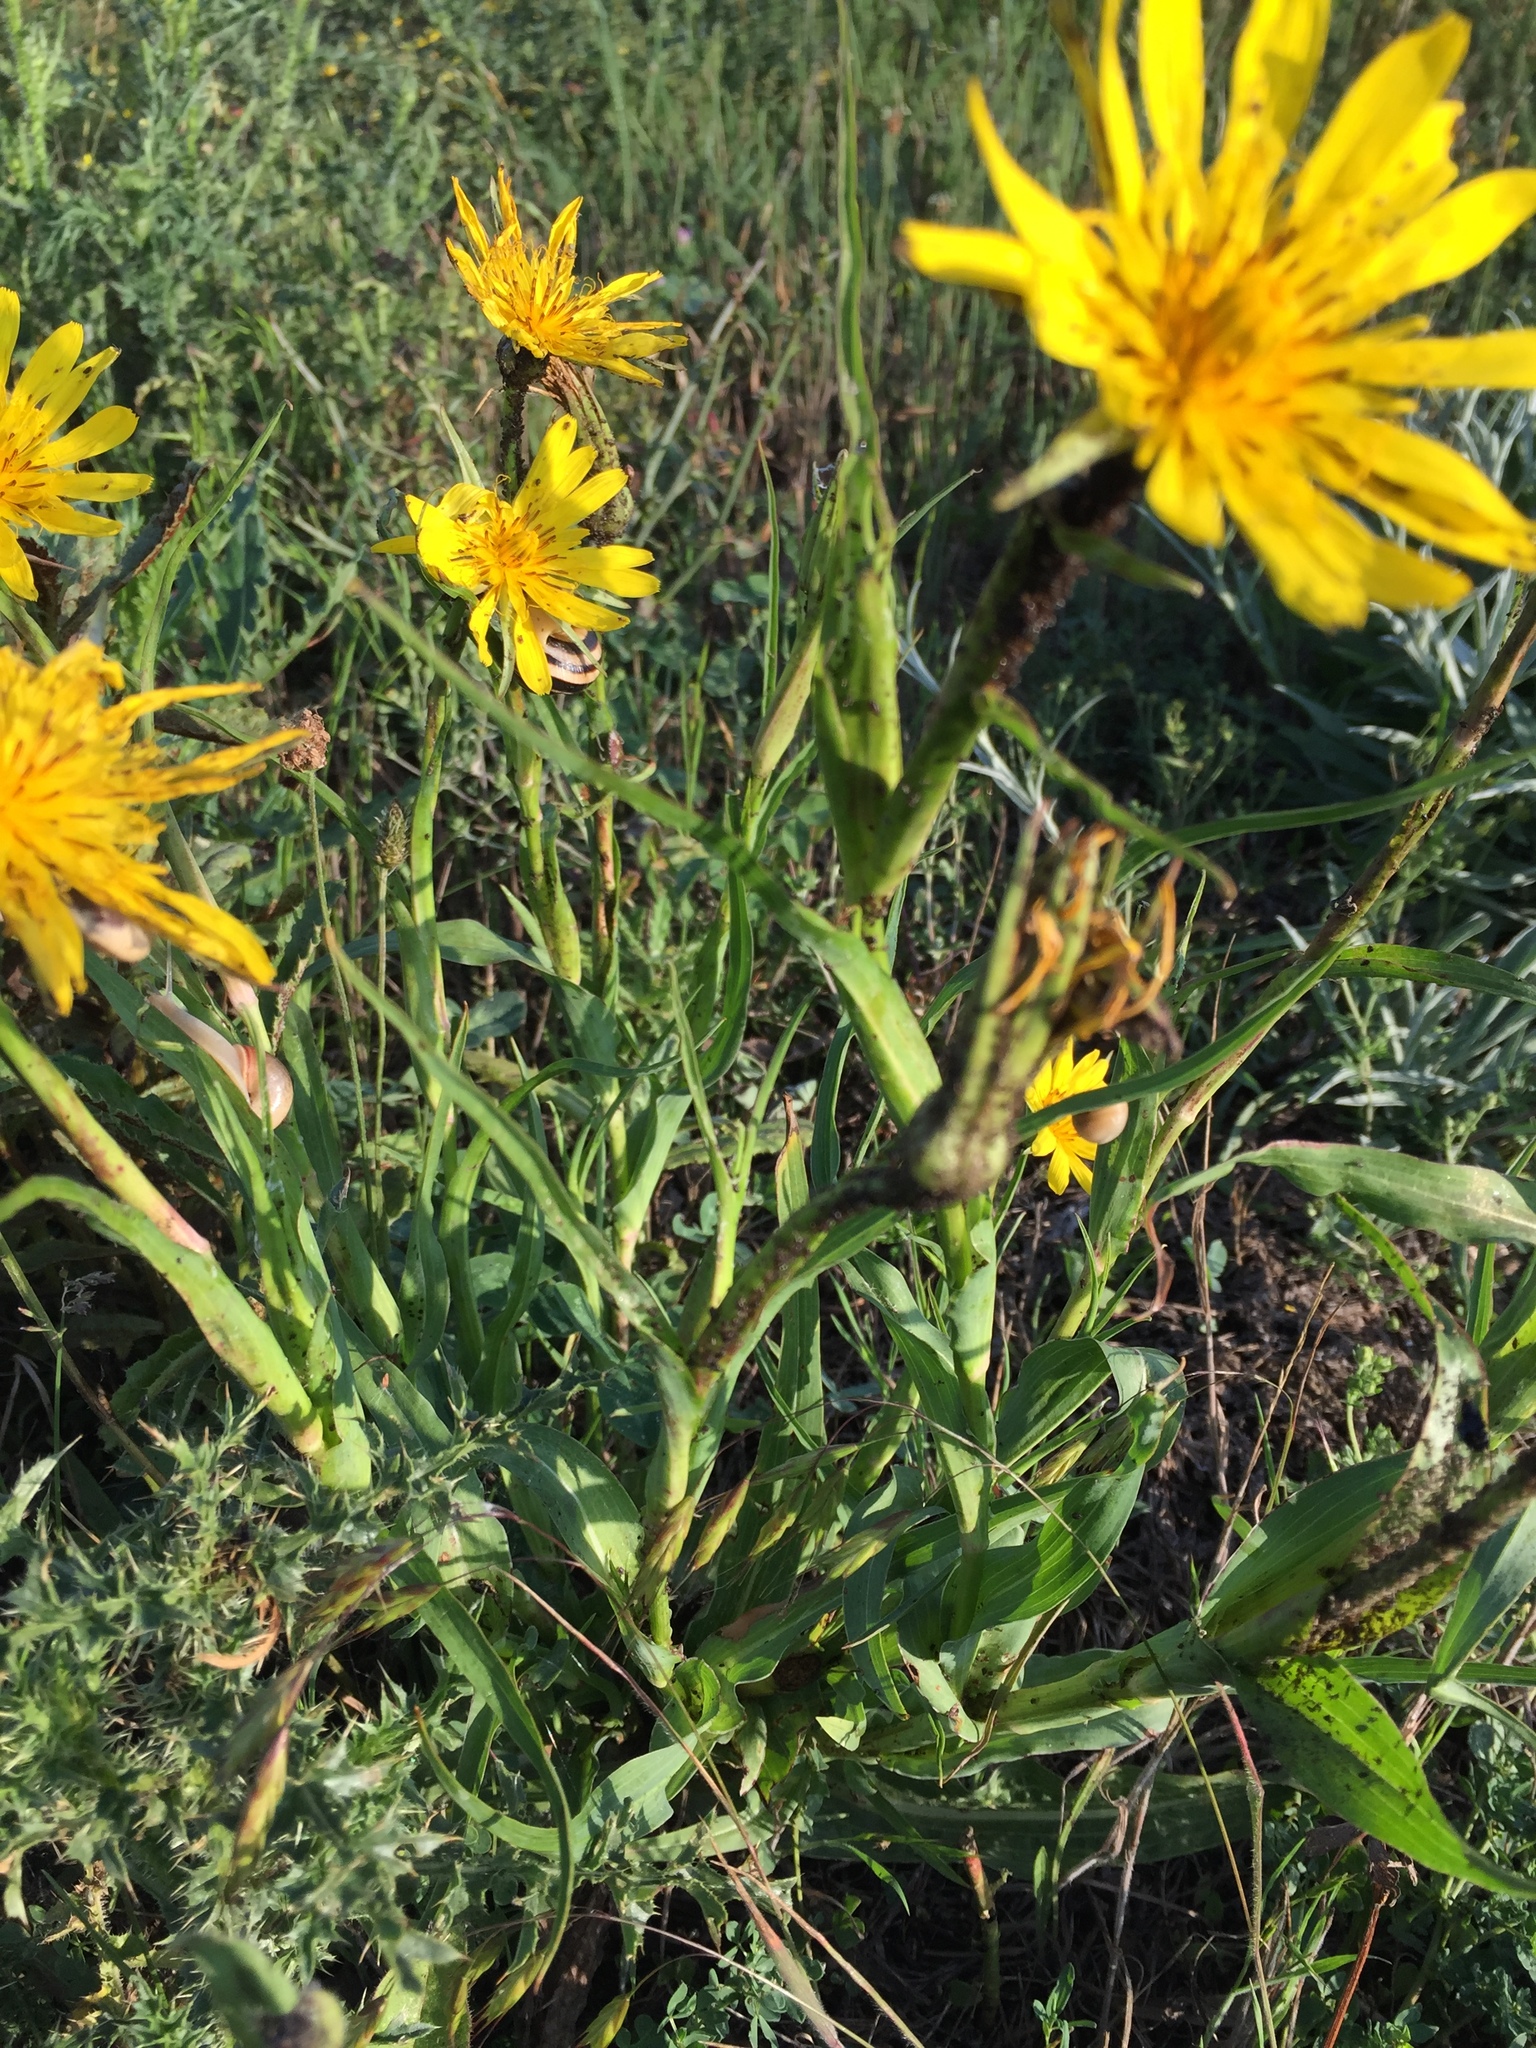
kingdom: Plantae
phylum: Tracheophyta
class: Magnoliopsida
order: Asterales
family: Asteraceae
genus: Tragopogon
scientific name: Tragopogon pratensis
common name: Goat's-beard
